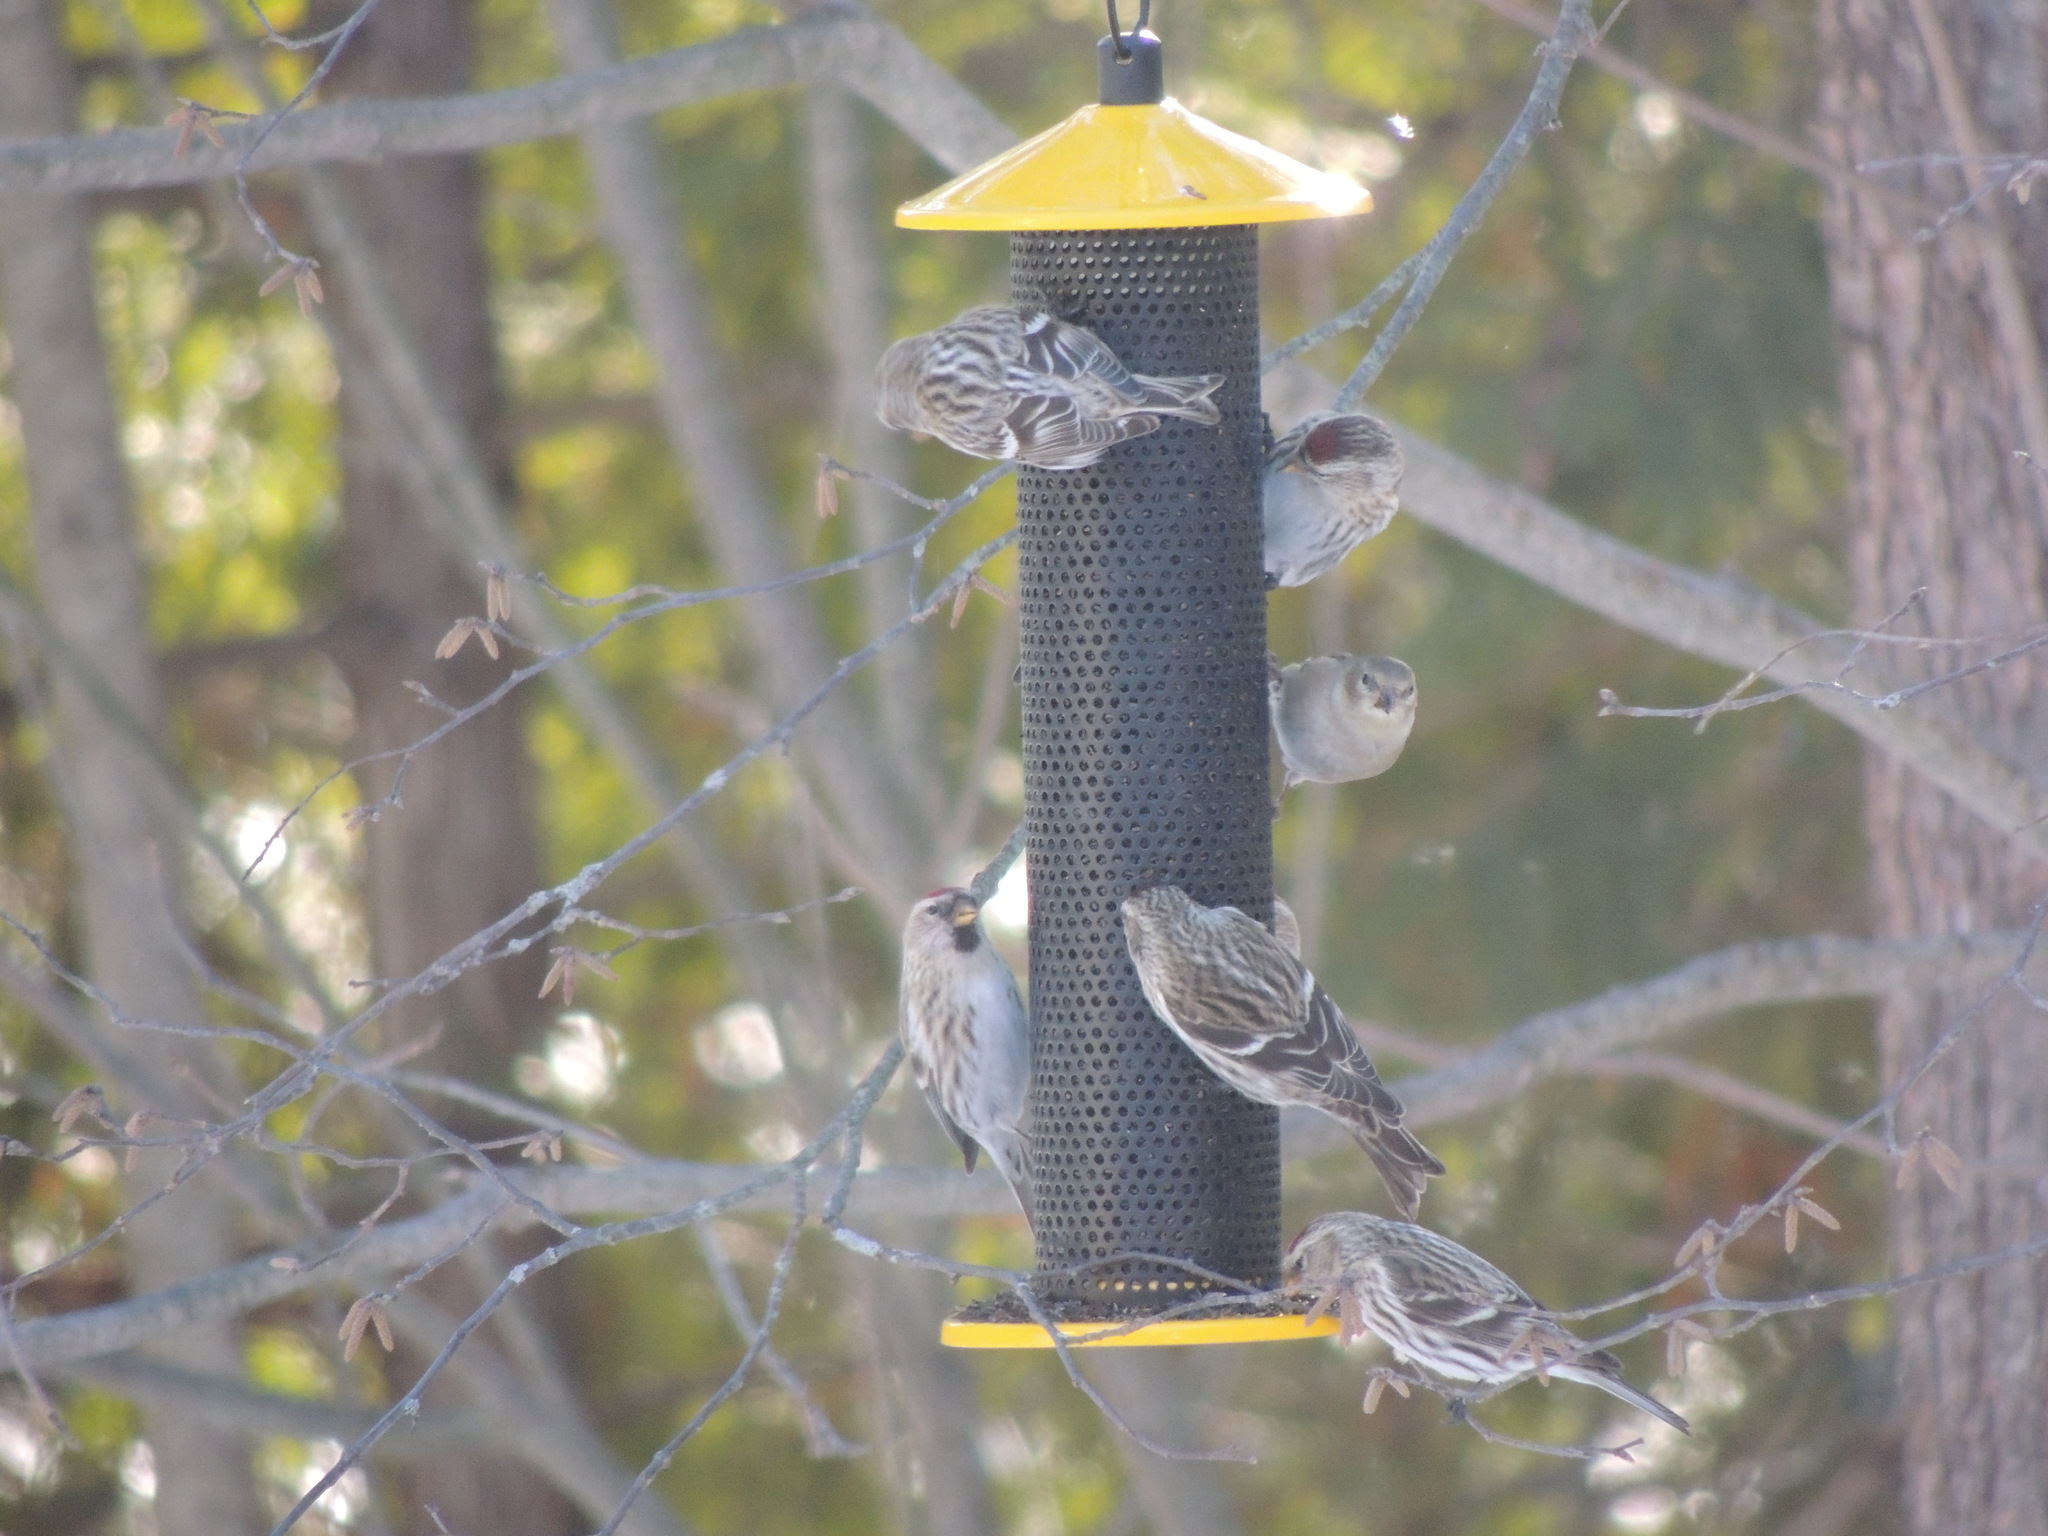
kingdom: Animalia
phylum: Chordata
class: Aves
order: Passeriformes
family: Fringillidae
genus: Acanthis
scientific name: Acanthis flammea
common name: Common redpoll
